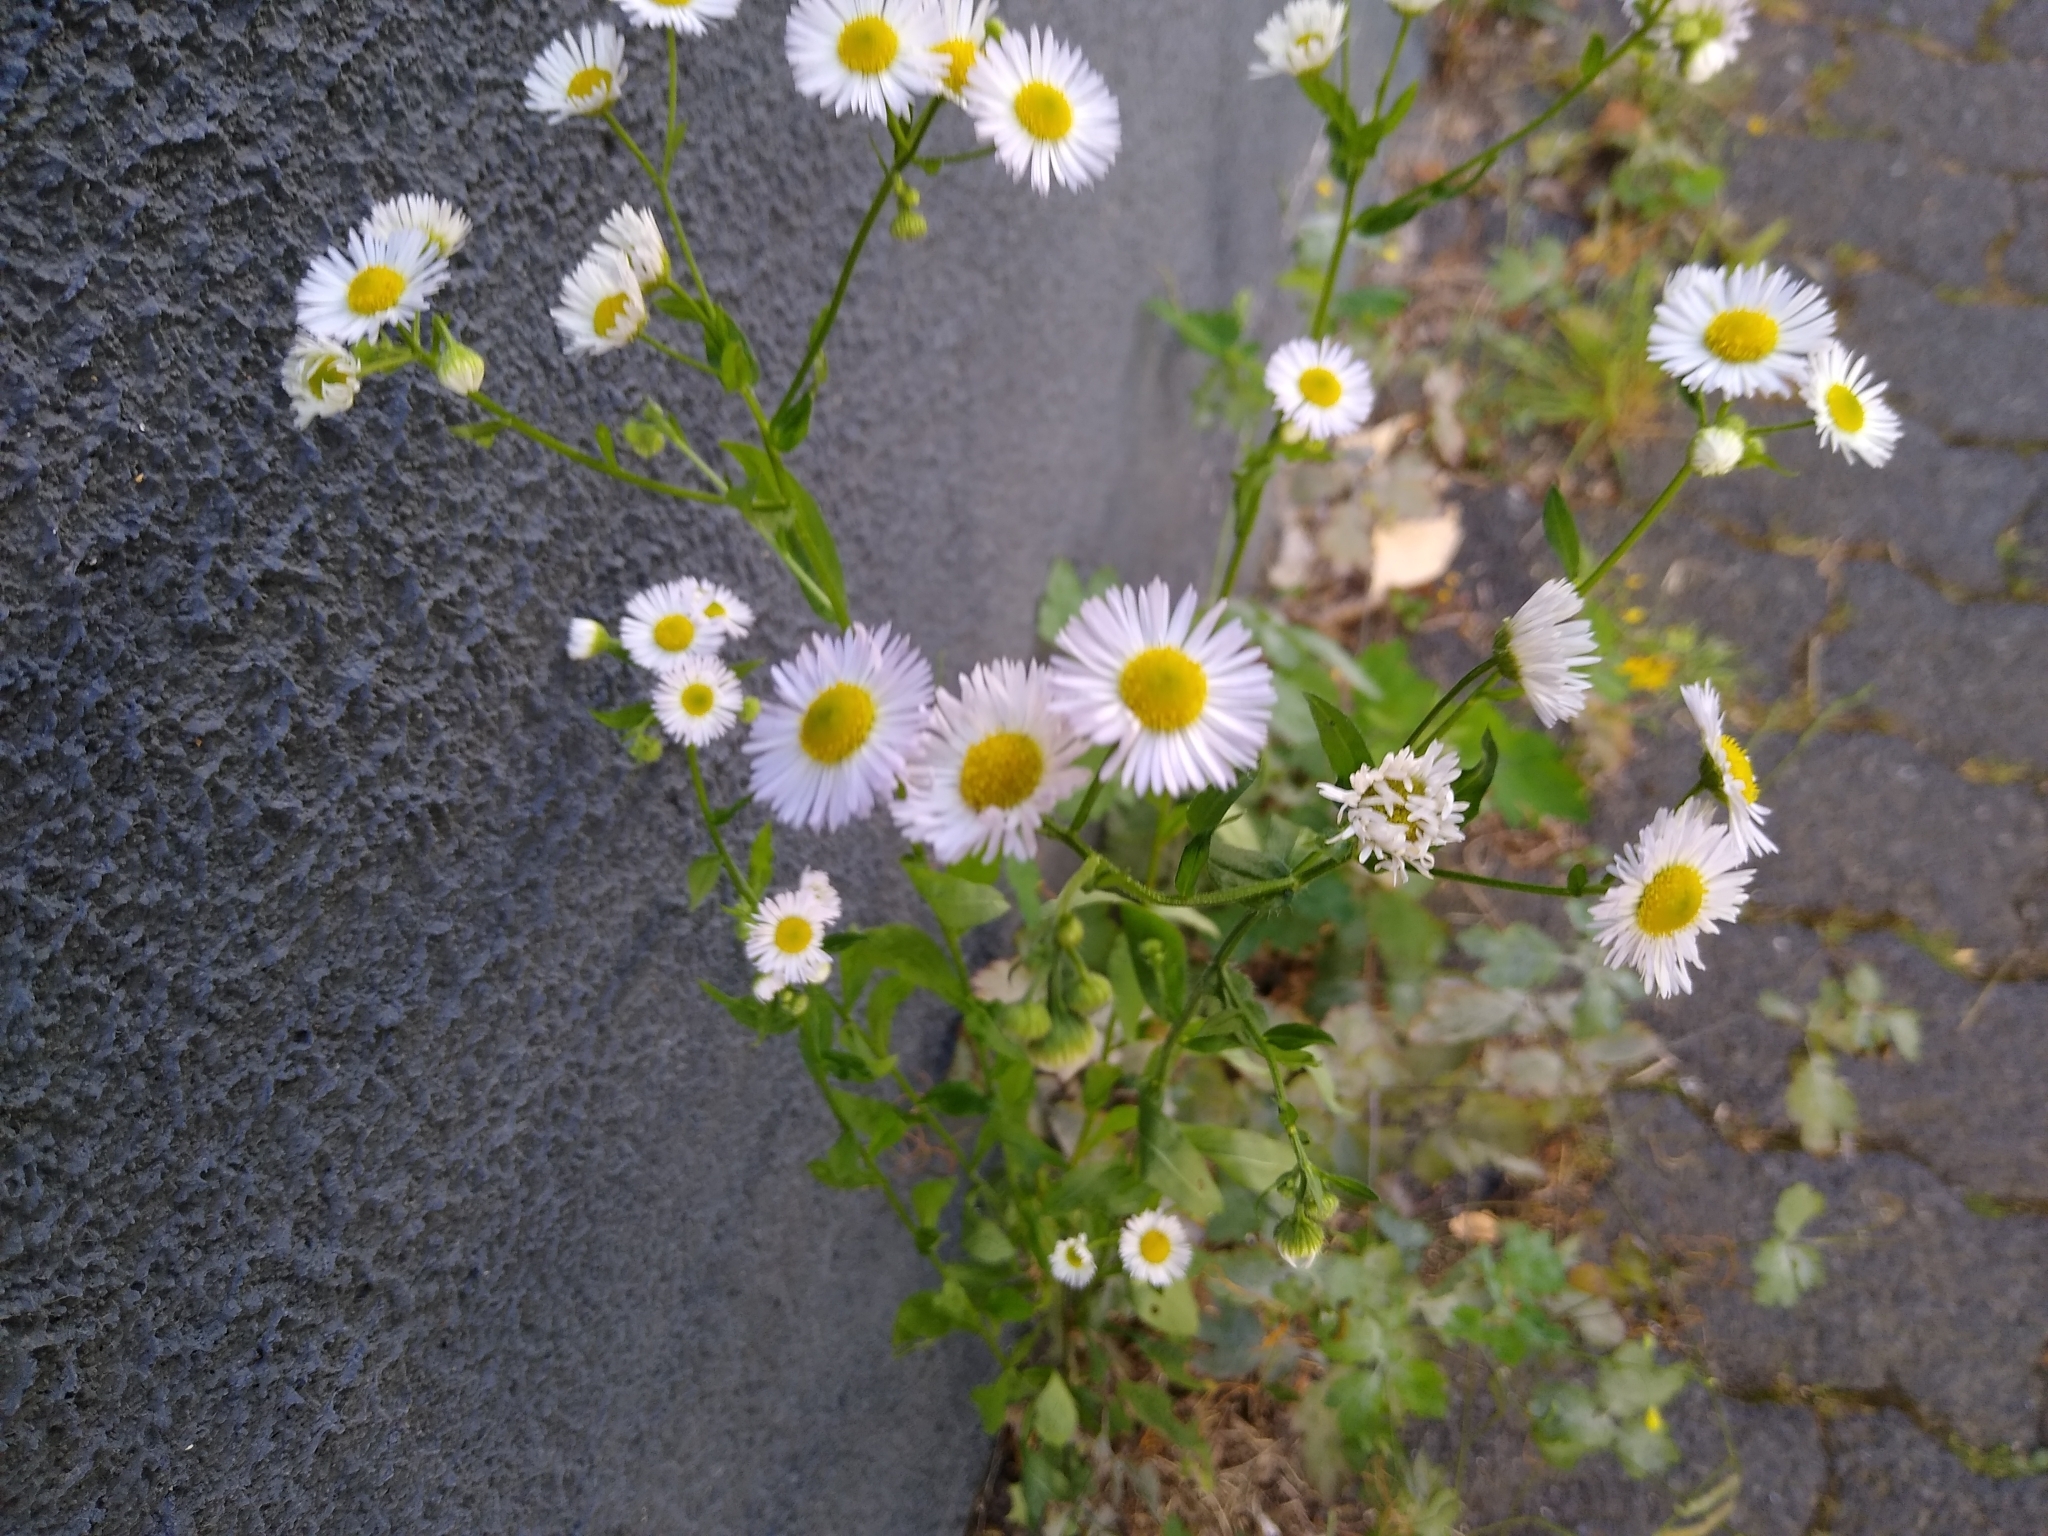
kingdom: Plantae
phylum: Tracheophyta
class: Magnoliopsida
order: Asterales
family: Asteraceae
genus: Erigeron
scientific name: Erigeron annuus
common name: Tall fleabane
